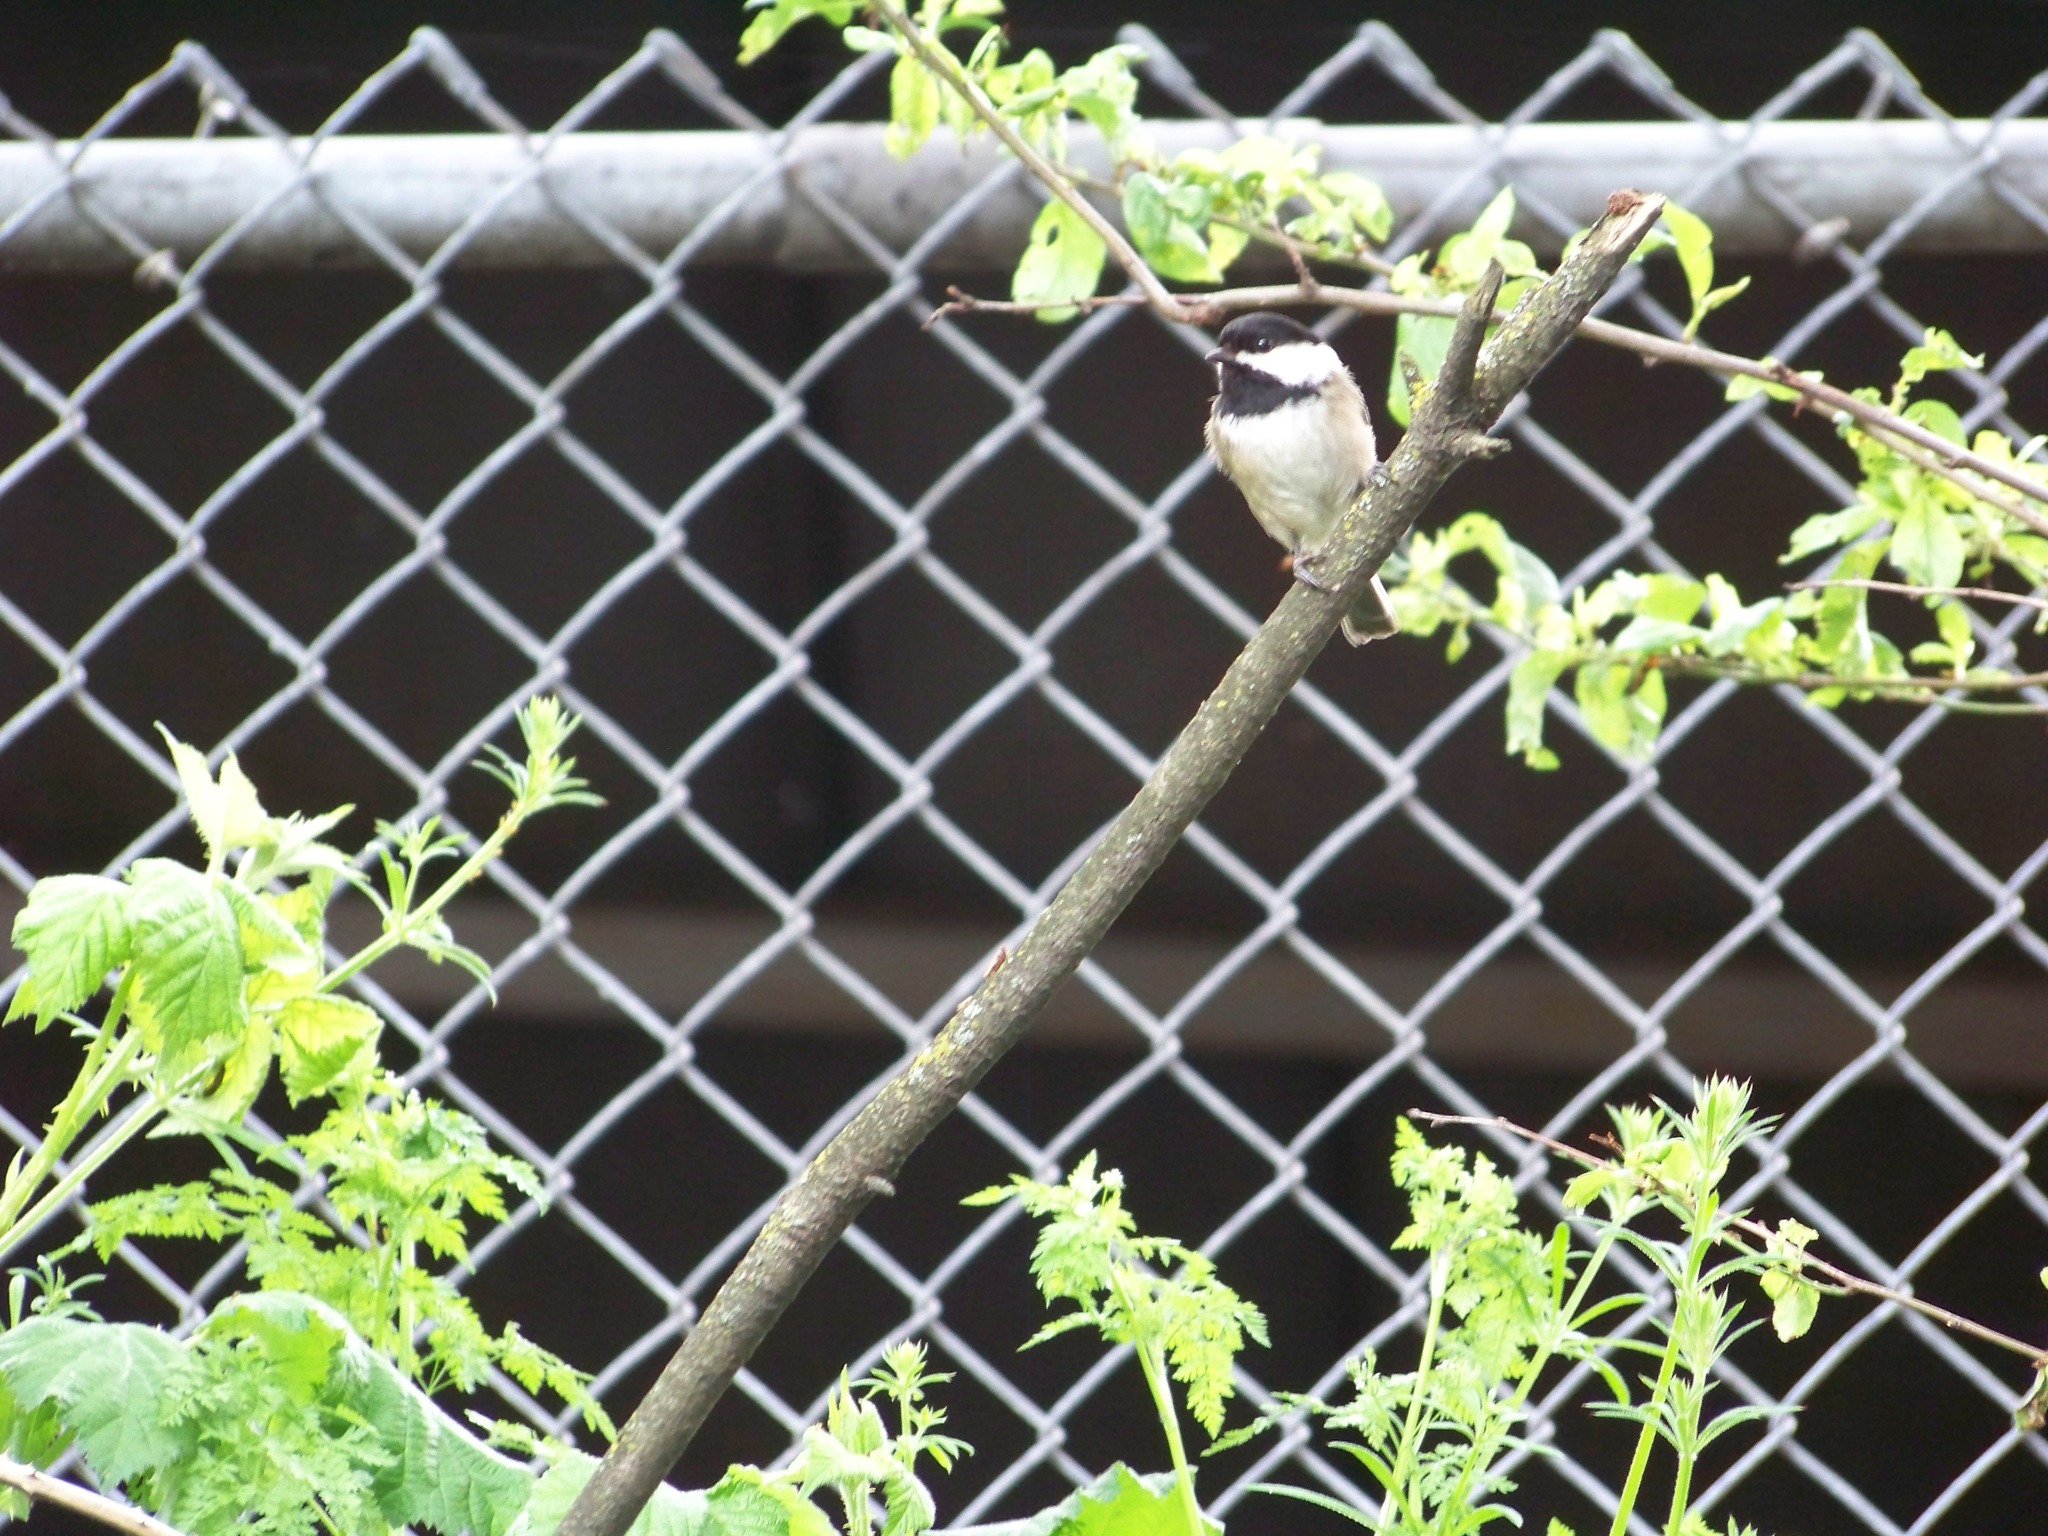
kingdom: Animalia
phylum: Chordata
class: Aves
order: Passeriformes
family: Paridae
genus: Poecile
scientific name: Poecile atricapillus
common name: Black-capped chickadee
